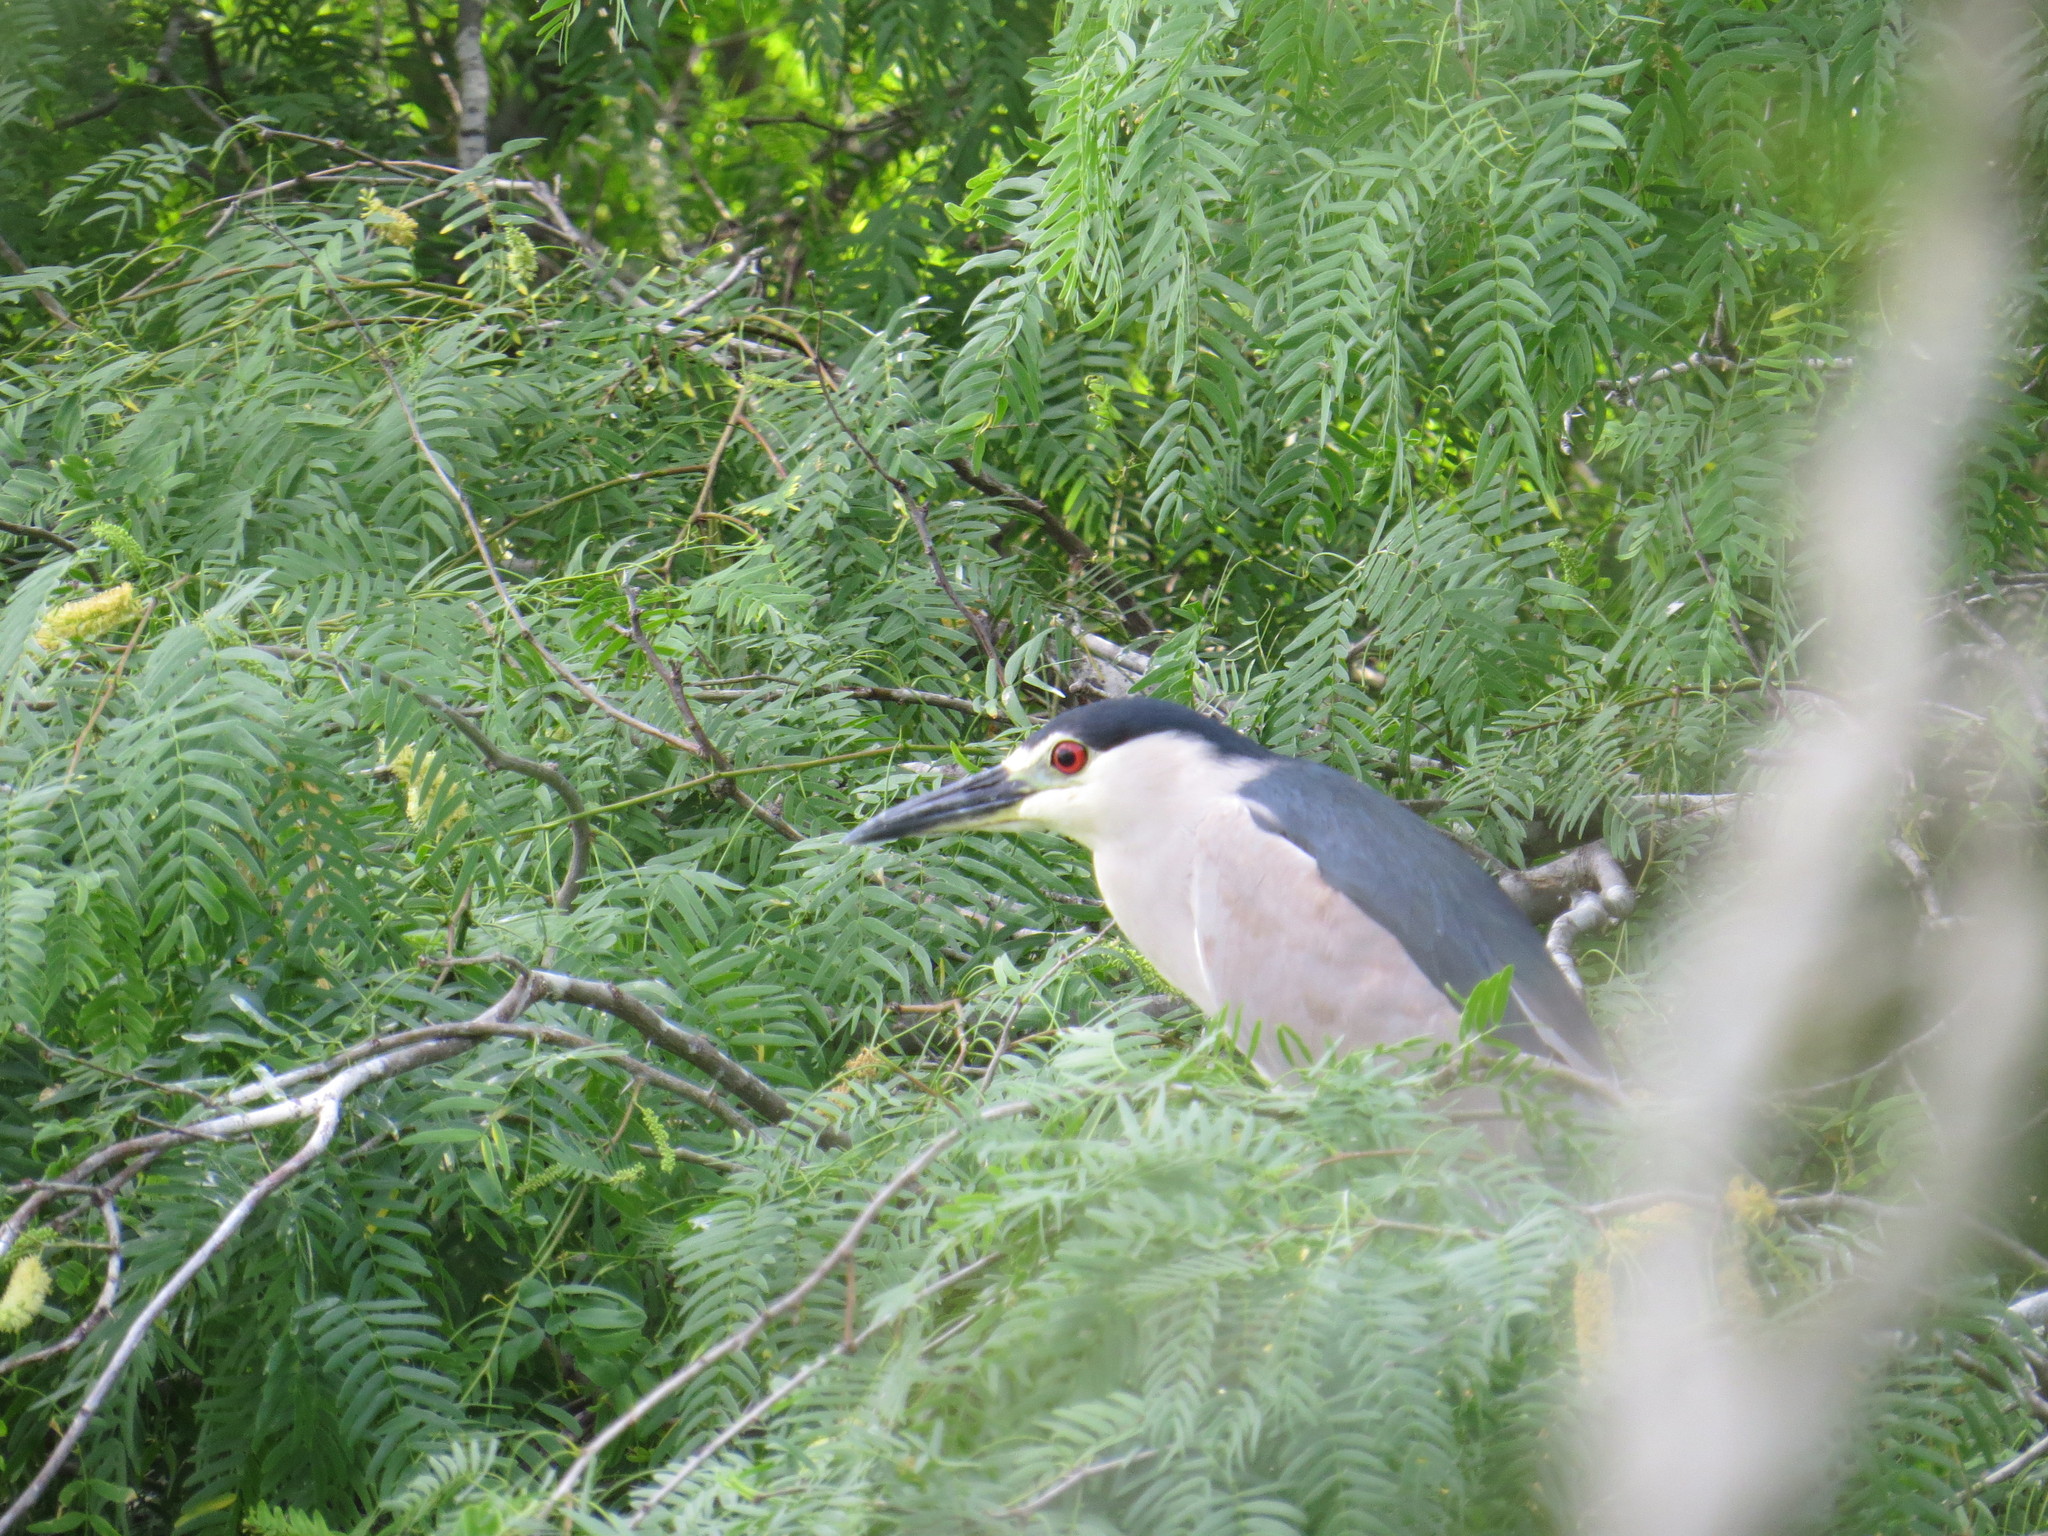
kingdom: Animalia
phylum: Chordata
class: Aves
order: Pelecaniformes
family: Ardeidae
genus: Nycticorax
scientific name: Nycticorax nycticorax
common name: Black-crowned night heron
